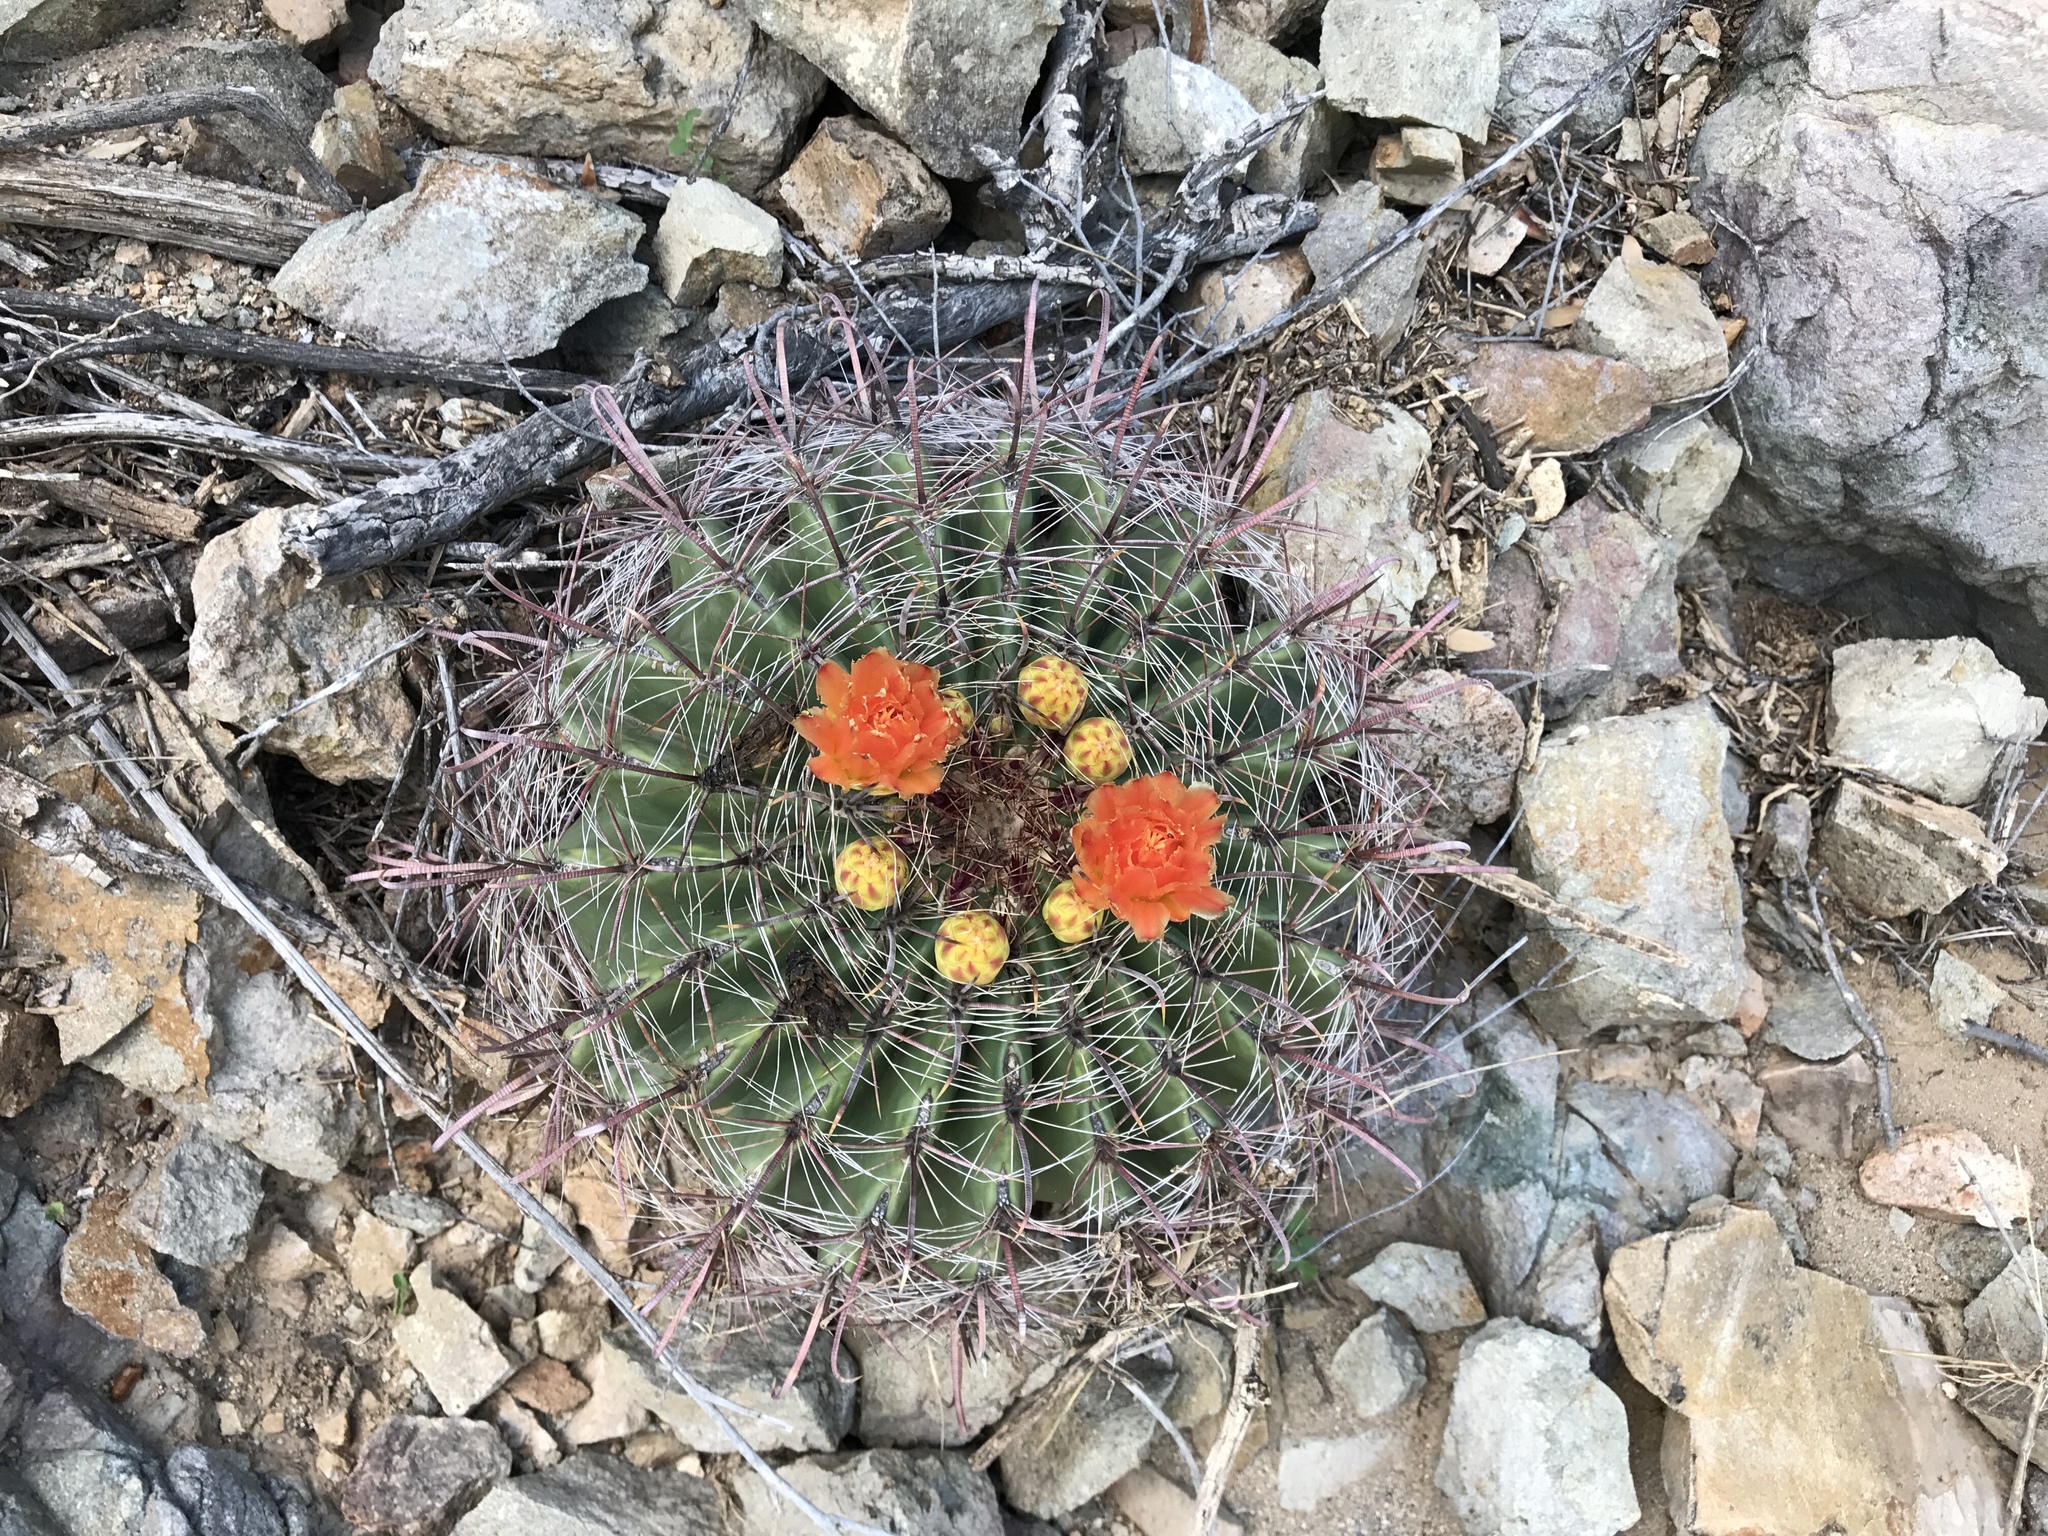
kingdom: Plantae
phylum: Tracheophyta
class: Magnoliopsida
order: Caryophyllales
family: Cactaceae
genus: Ferocactus
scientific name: Ferocactus wislizeni
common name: Candy barrel cactus
